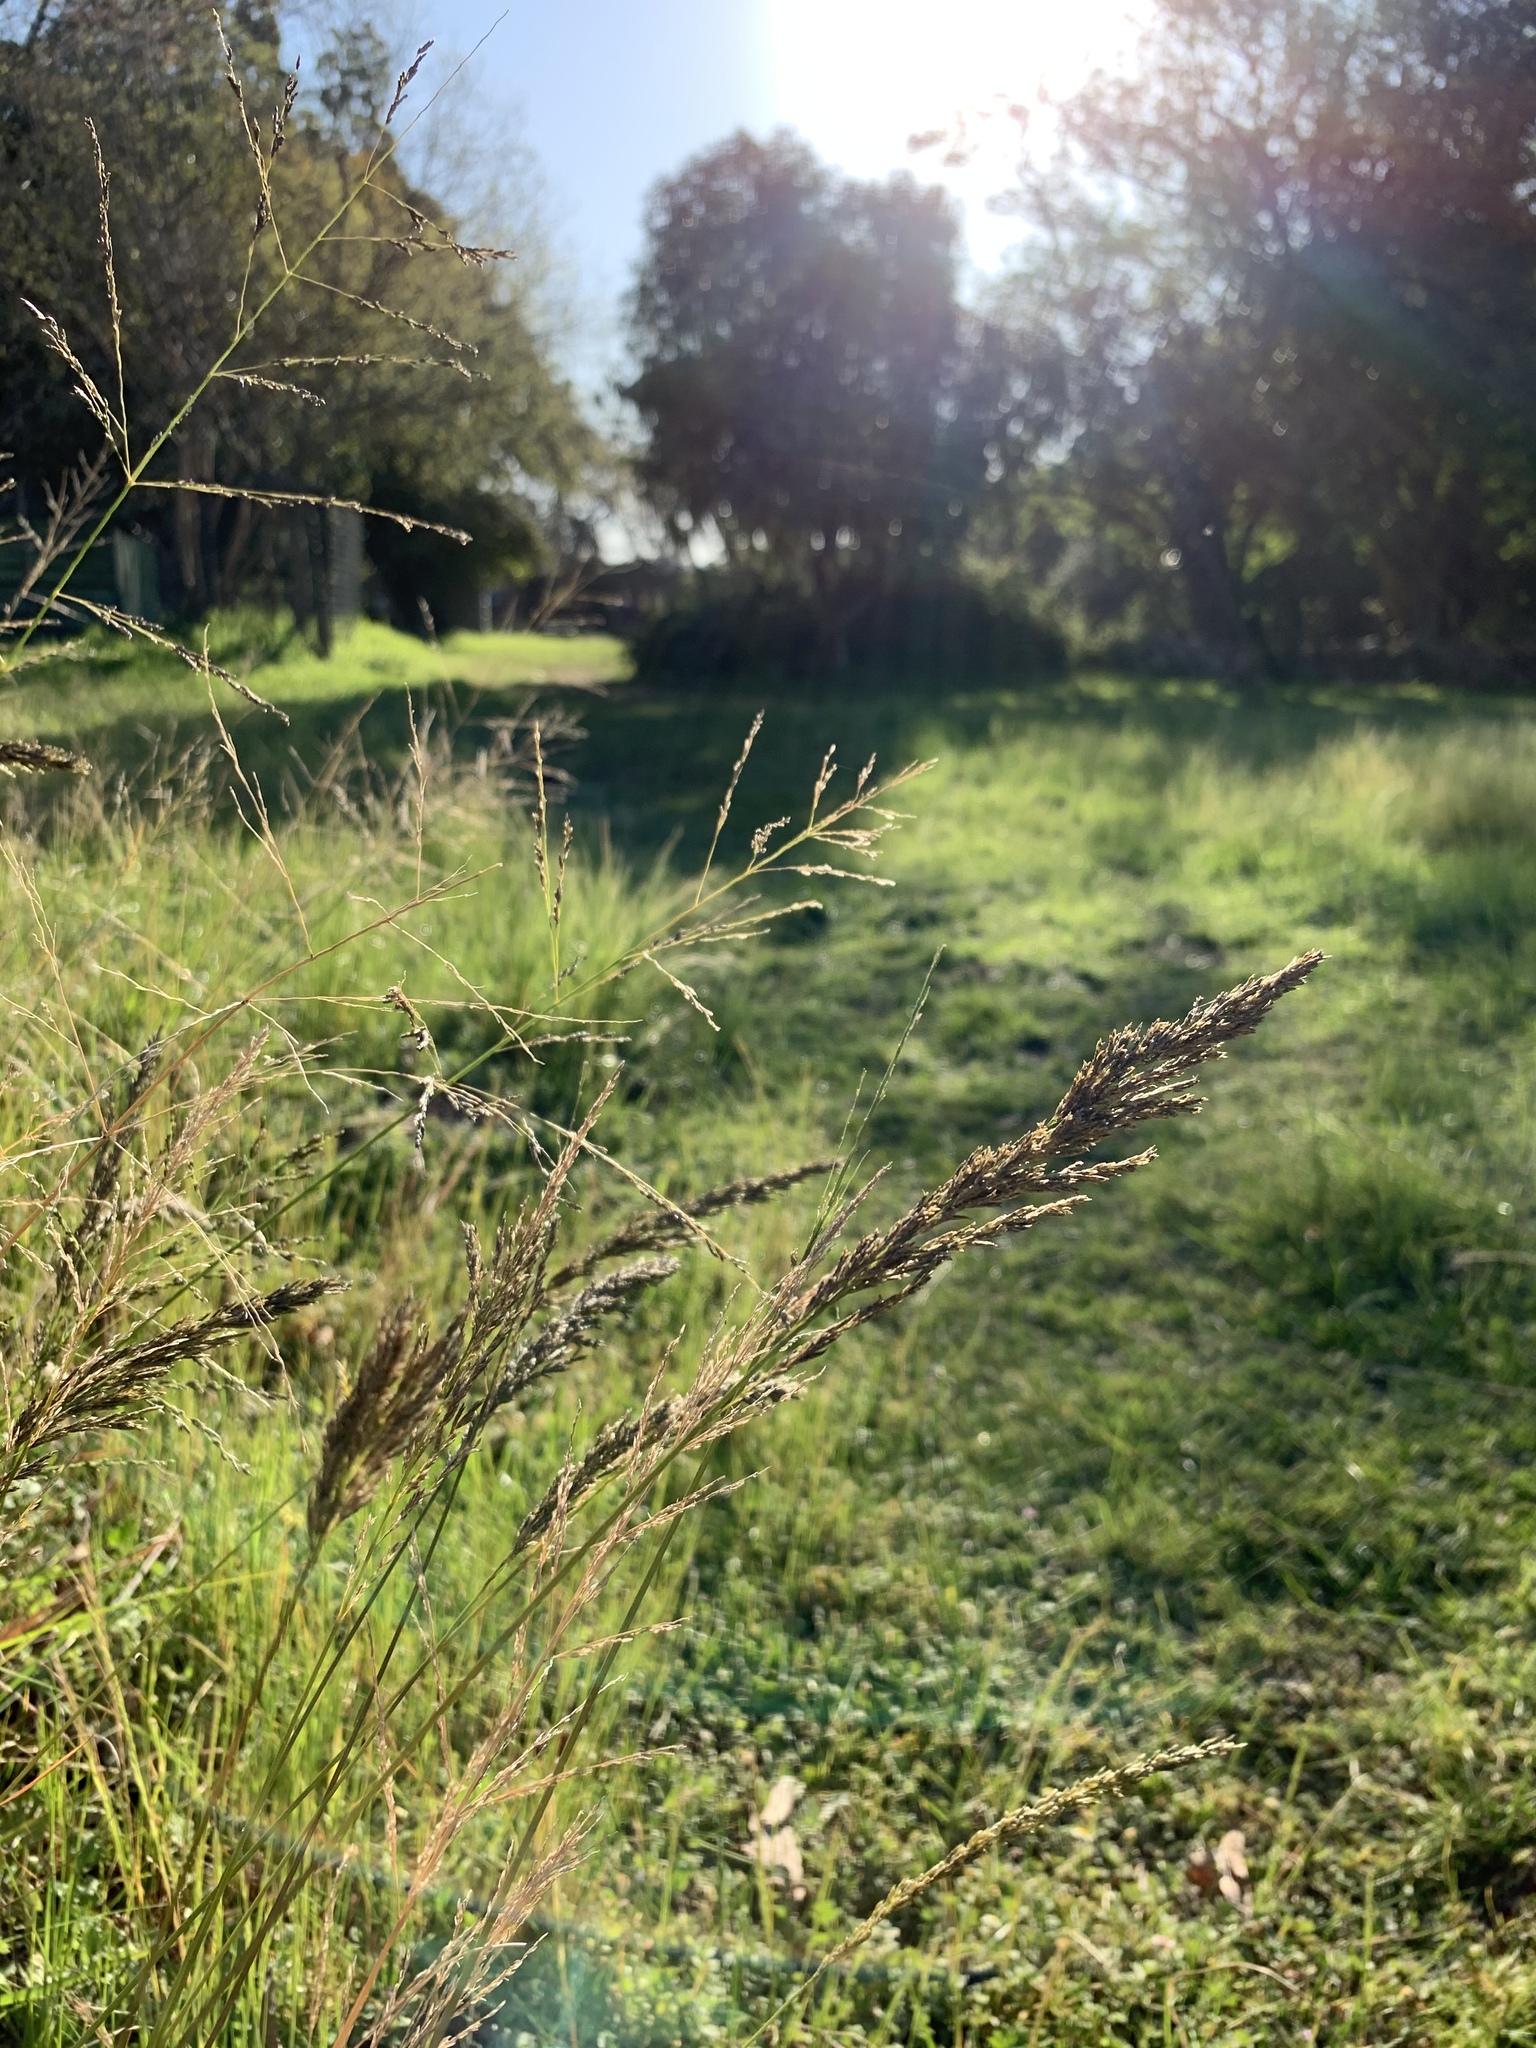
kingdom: Plantae
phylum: Tracheophyta
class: Liliopsida
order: Poales
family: Poaceae
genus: Eragrostis
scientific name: Eragrostis curvula
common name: African love-grass
